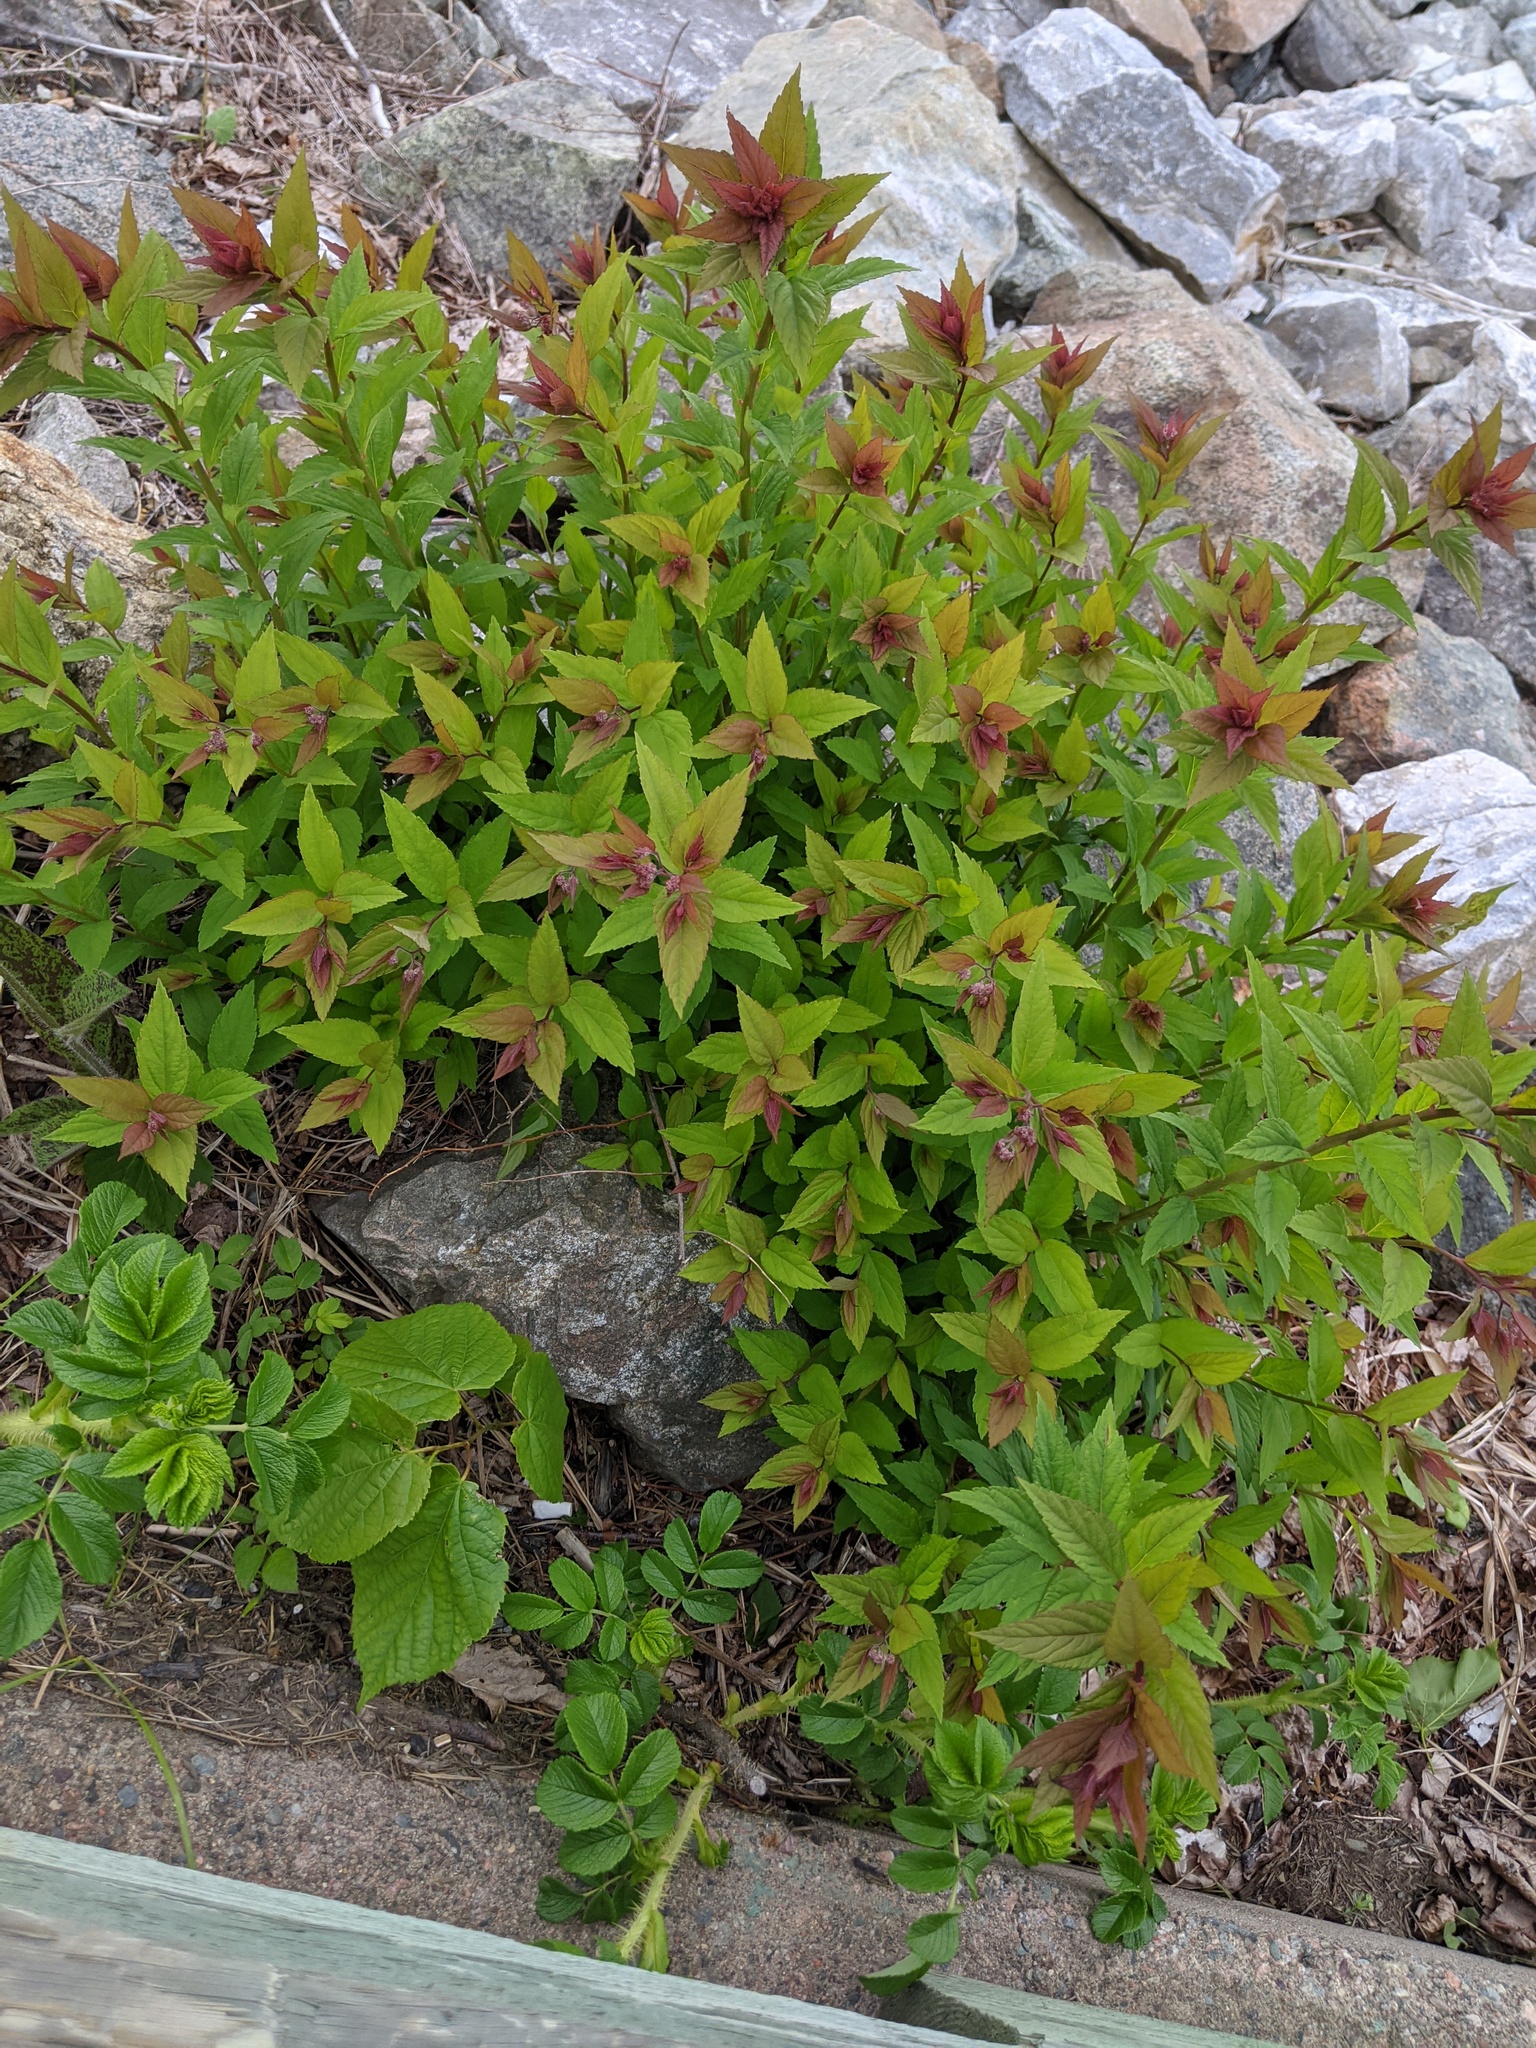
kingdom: Plantae
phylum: Tracheophyta
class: Magnoliopsida
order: Rosales
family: Rosaceae
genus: Spiraea
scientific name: Spiraea japonica
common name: Japanese spiraea
